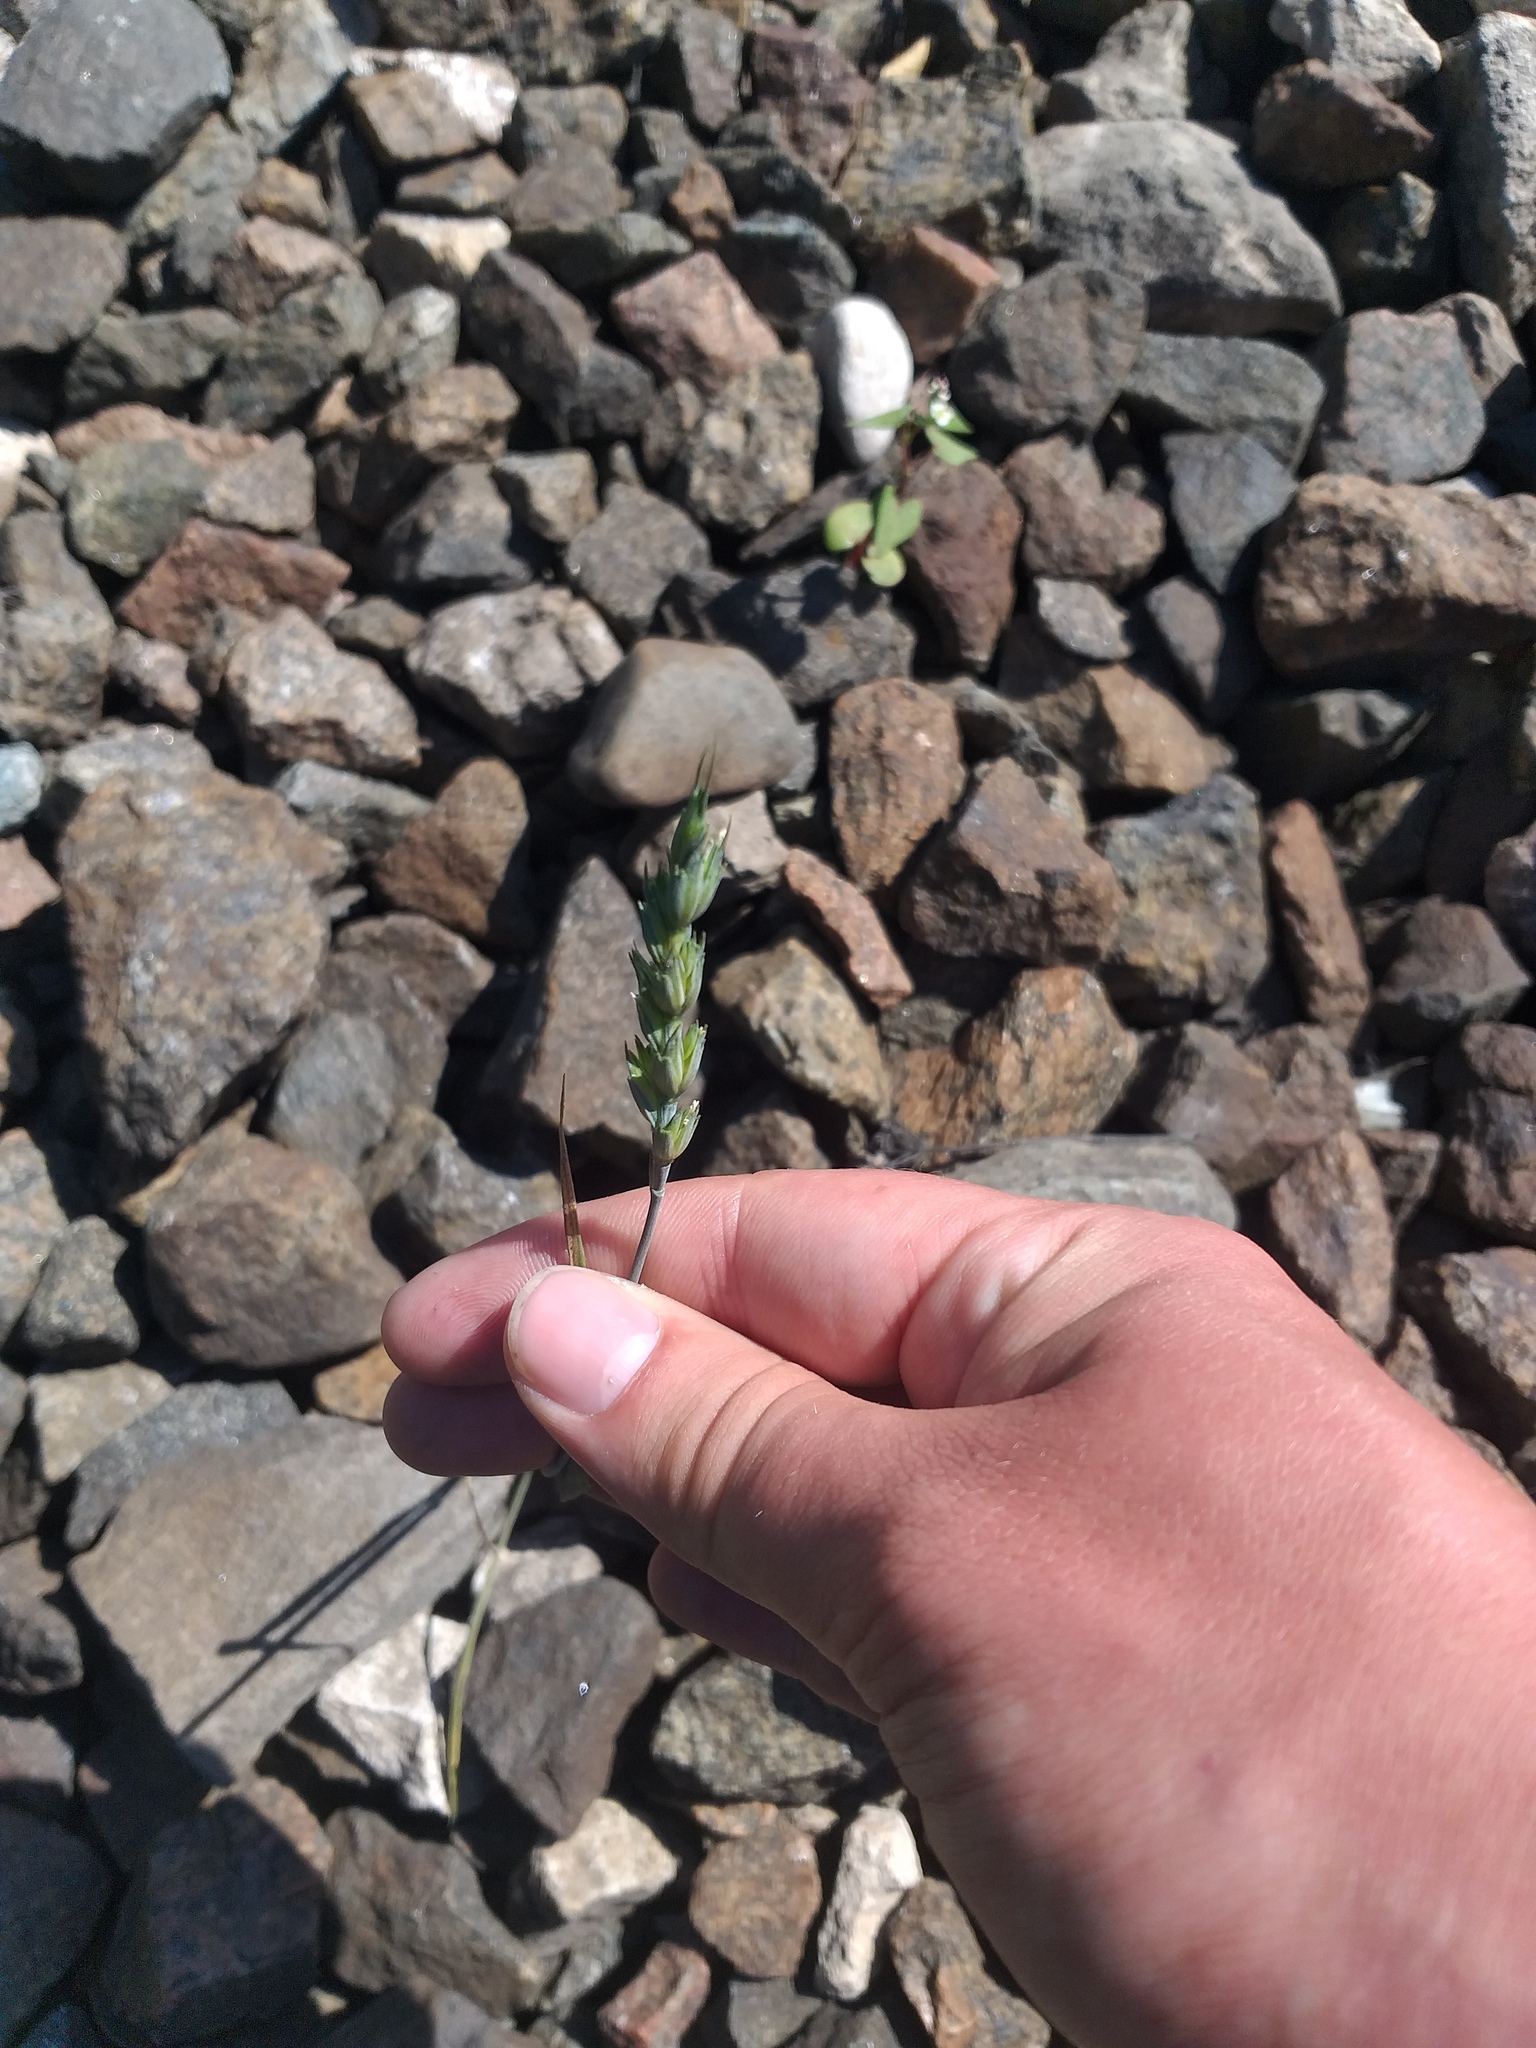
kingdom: Plantae
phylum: Tracheophyta
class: Liliopsida
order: Poales
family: Poaceae
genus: Triticum
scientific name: Triticum aestivum
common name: Common wheat
